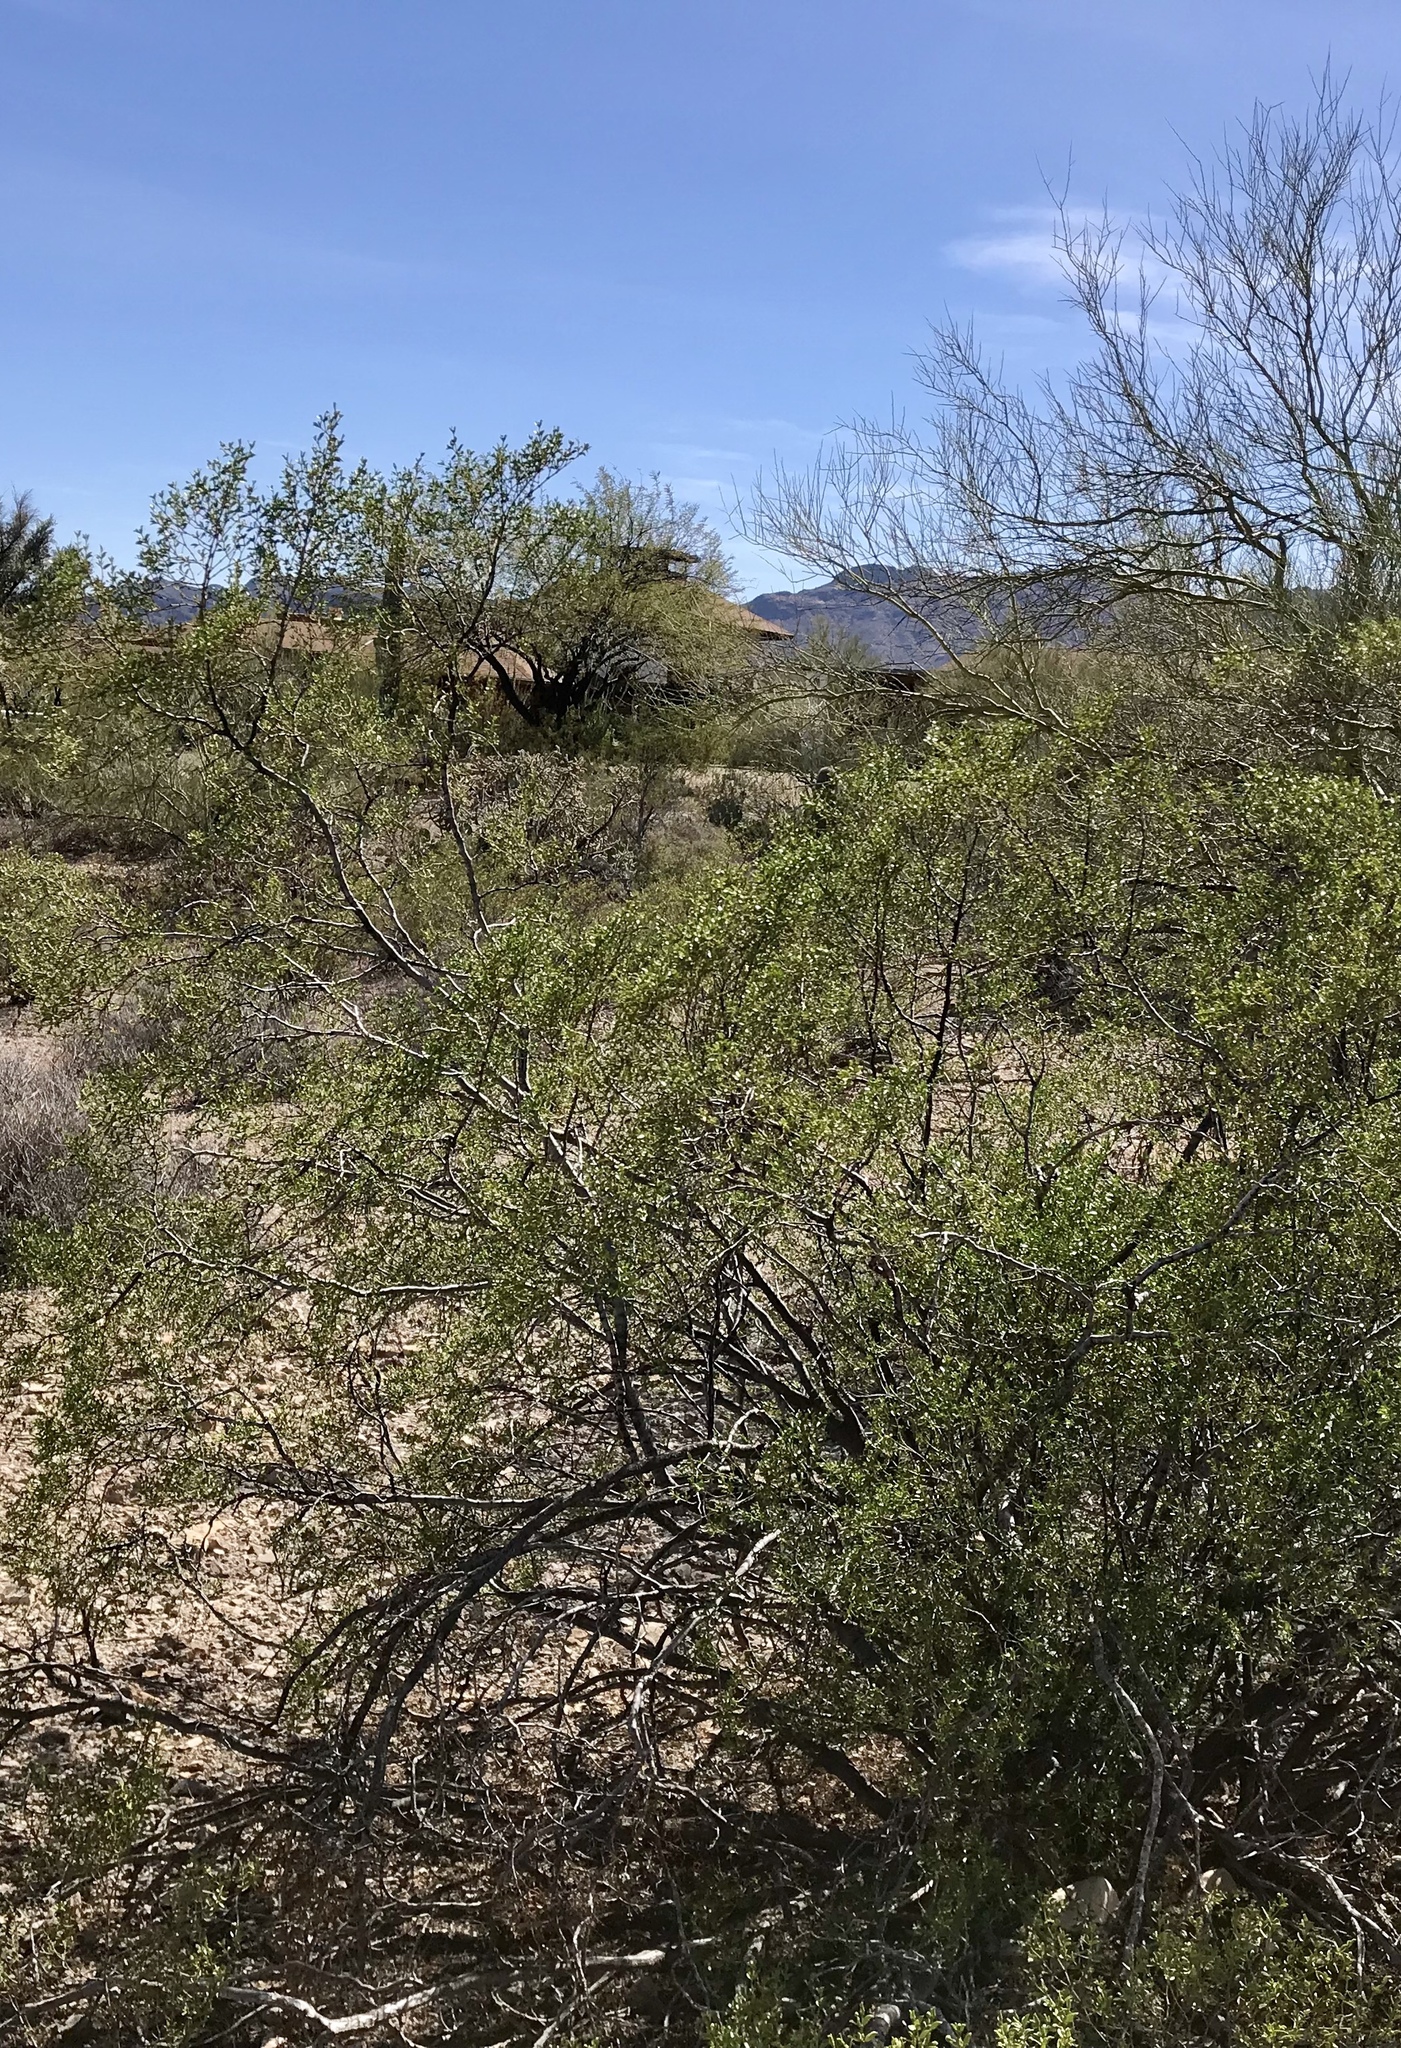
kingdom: Plantae
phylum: Tracheophyta
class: Magnoliopsida
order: Zygophyllales
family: Zygophyllaceae
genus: Larrea
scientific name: Larrea tridentata
